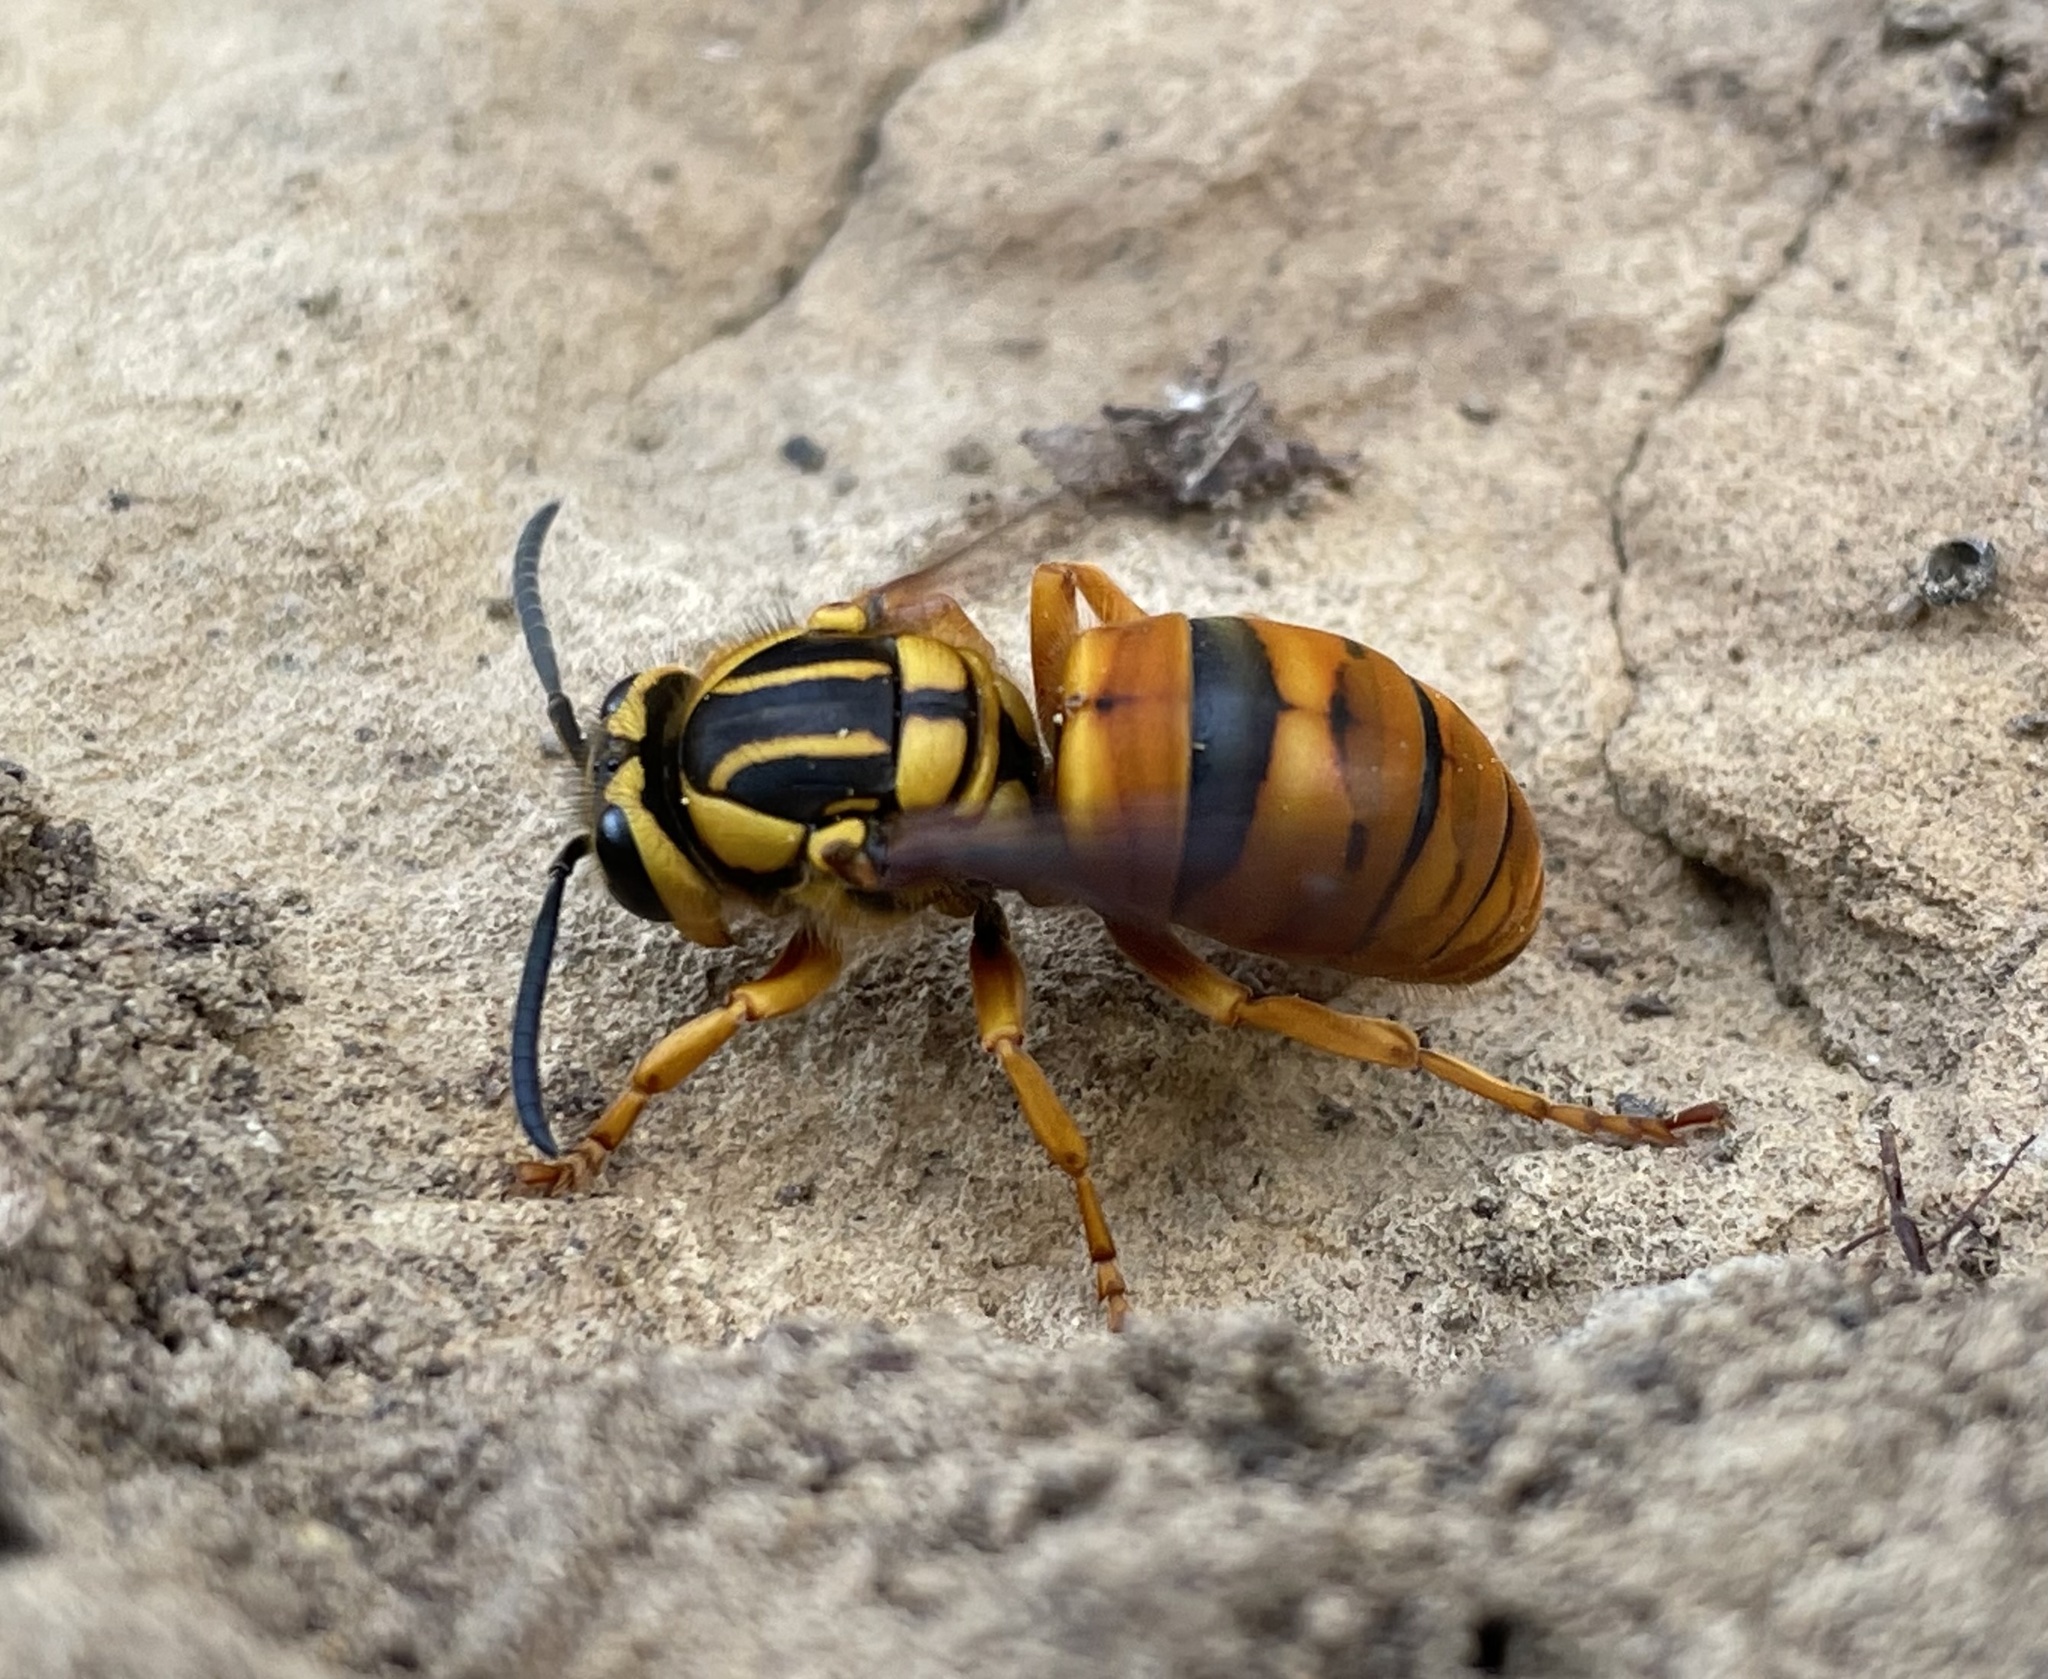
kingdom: Animalia
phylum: Arthropoda
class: Insecta
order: Hymenoptera
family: Vespidae
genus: Vespula
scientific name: Vespula squamosa
